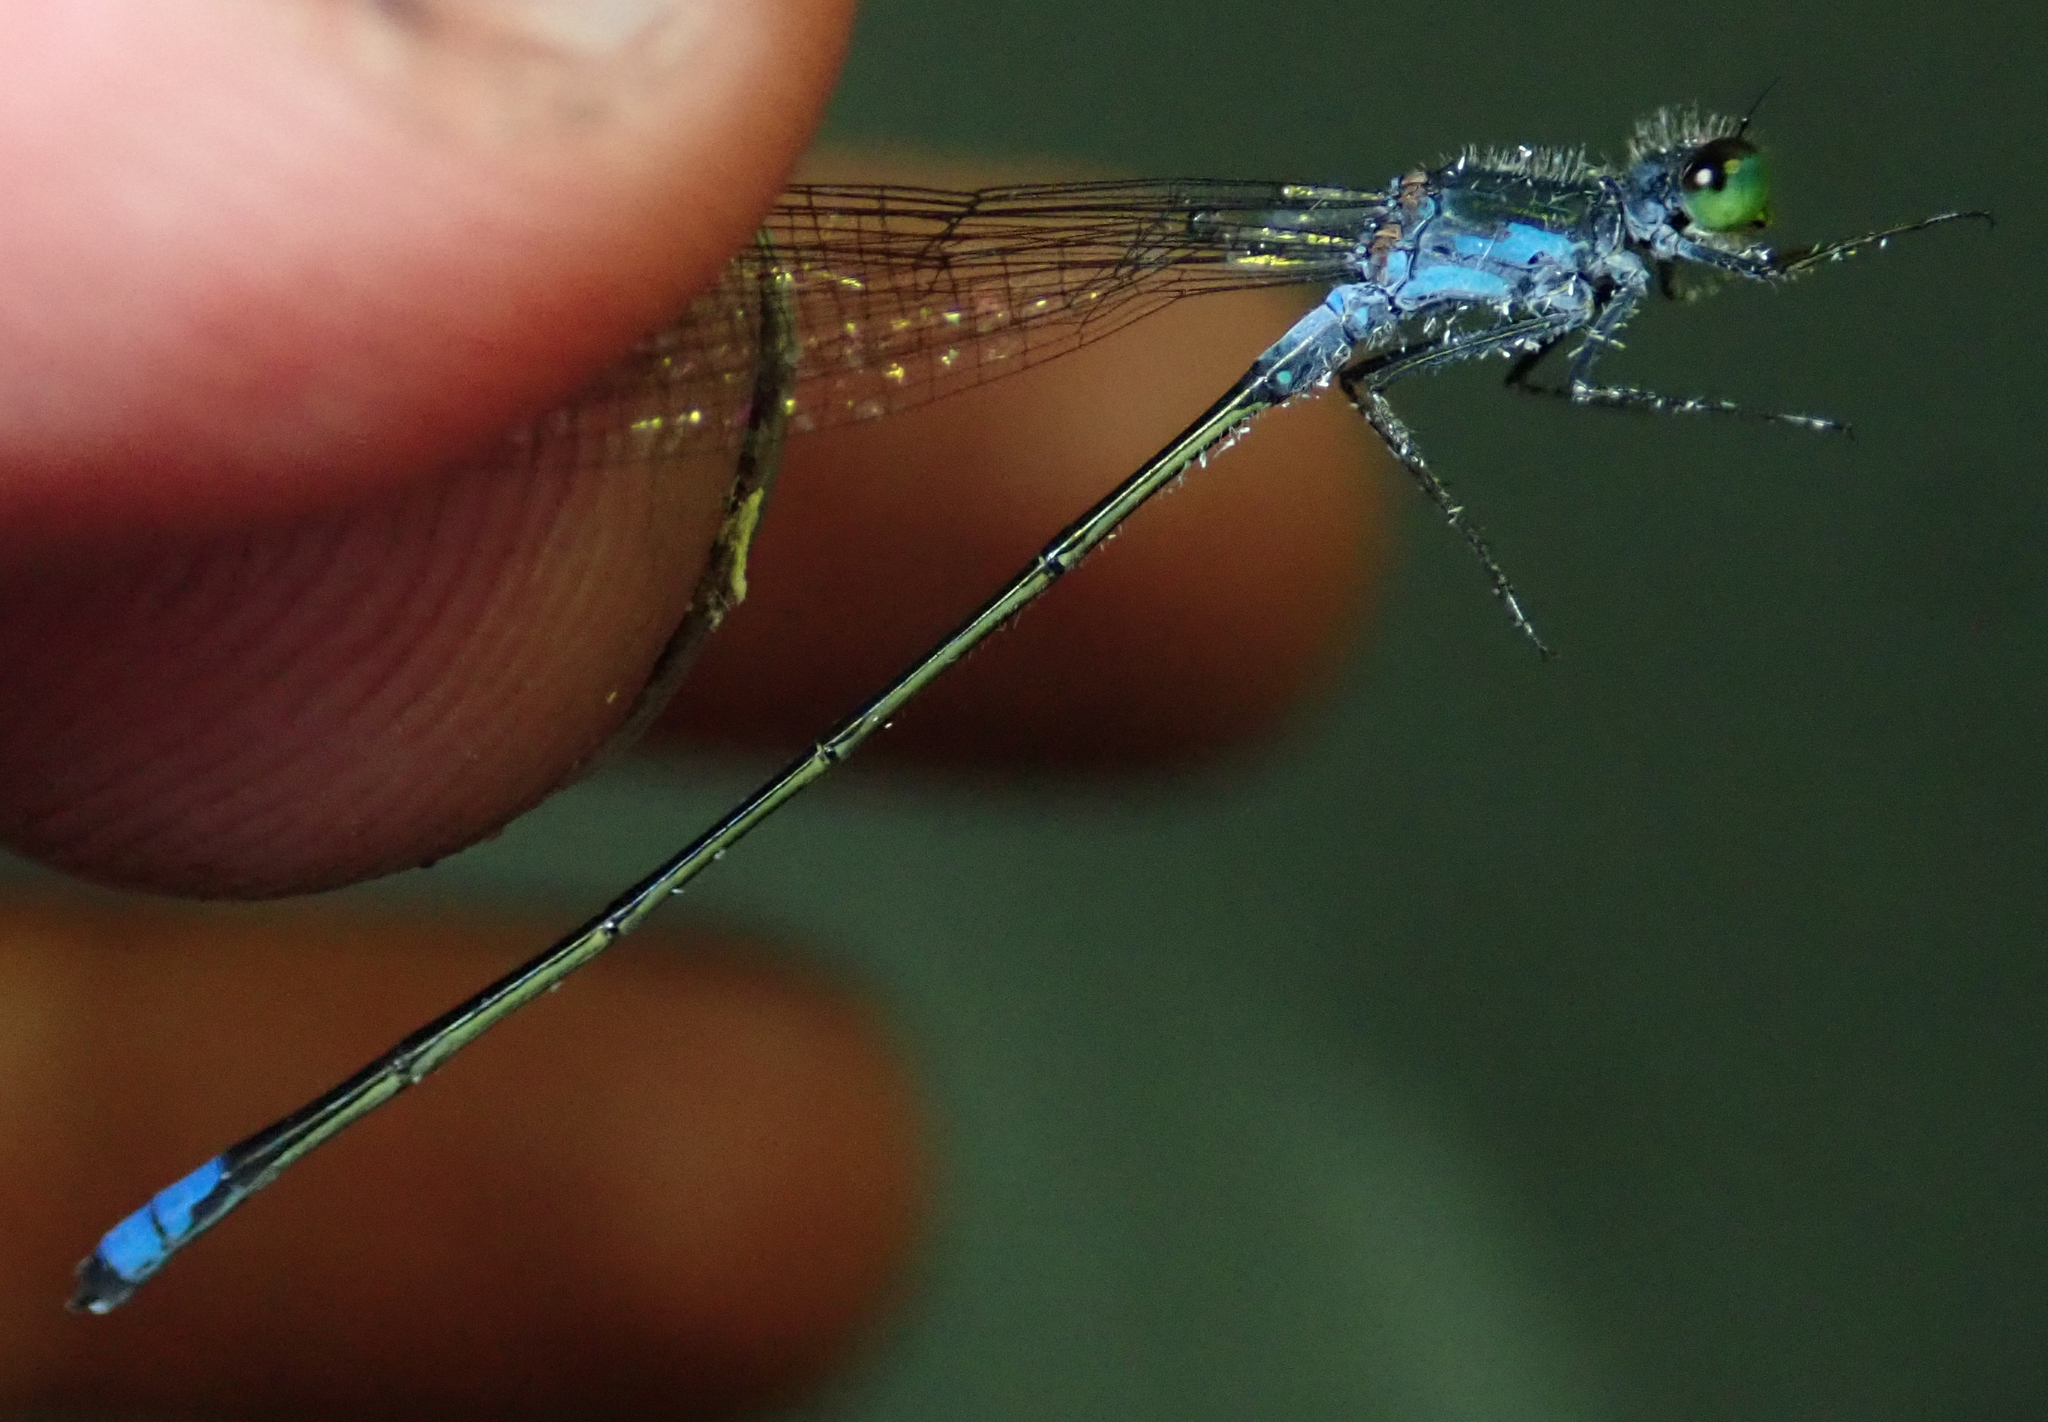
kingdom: Animalia
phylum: Arthropoda
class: Insecta
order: Odonata
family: Coenagrionidae
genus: Pseudagrion
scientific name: Pseudagrion deningi
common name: Dening's sprite
